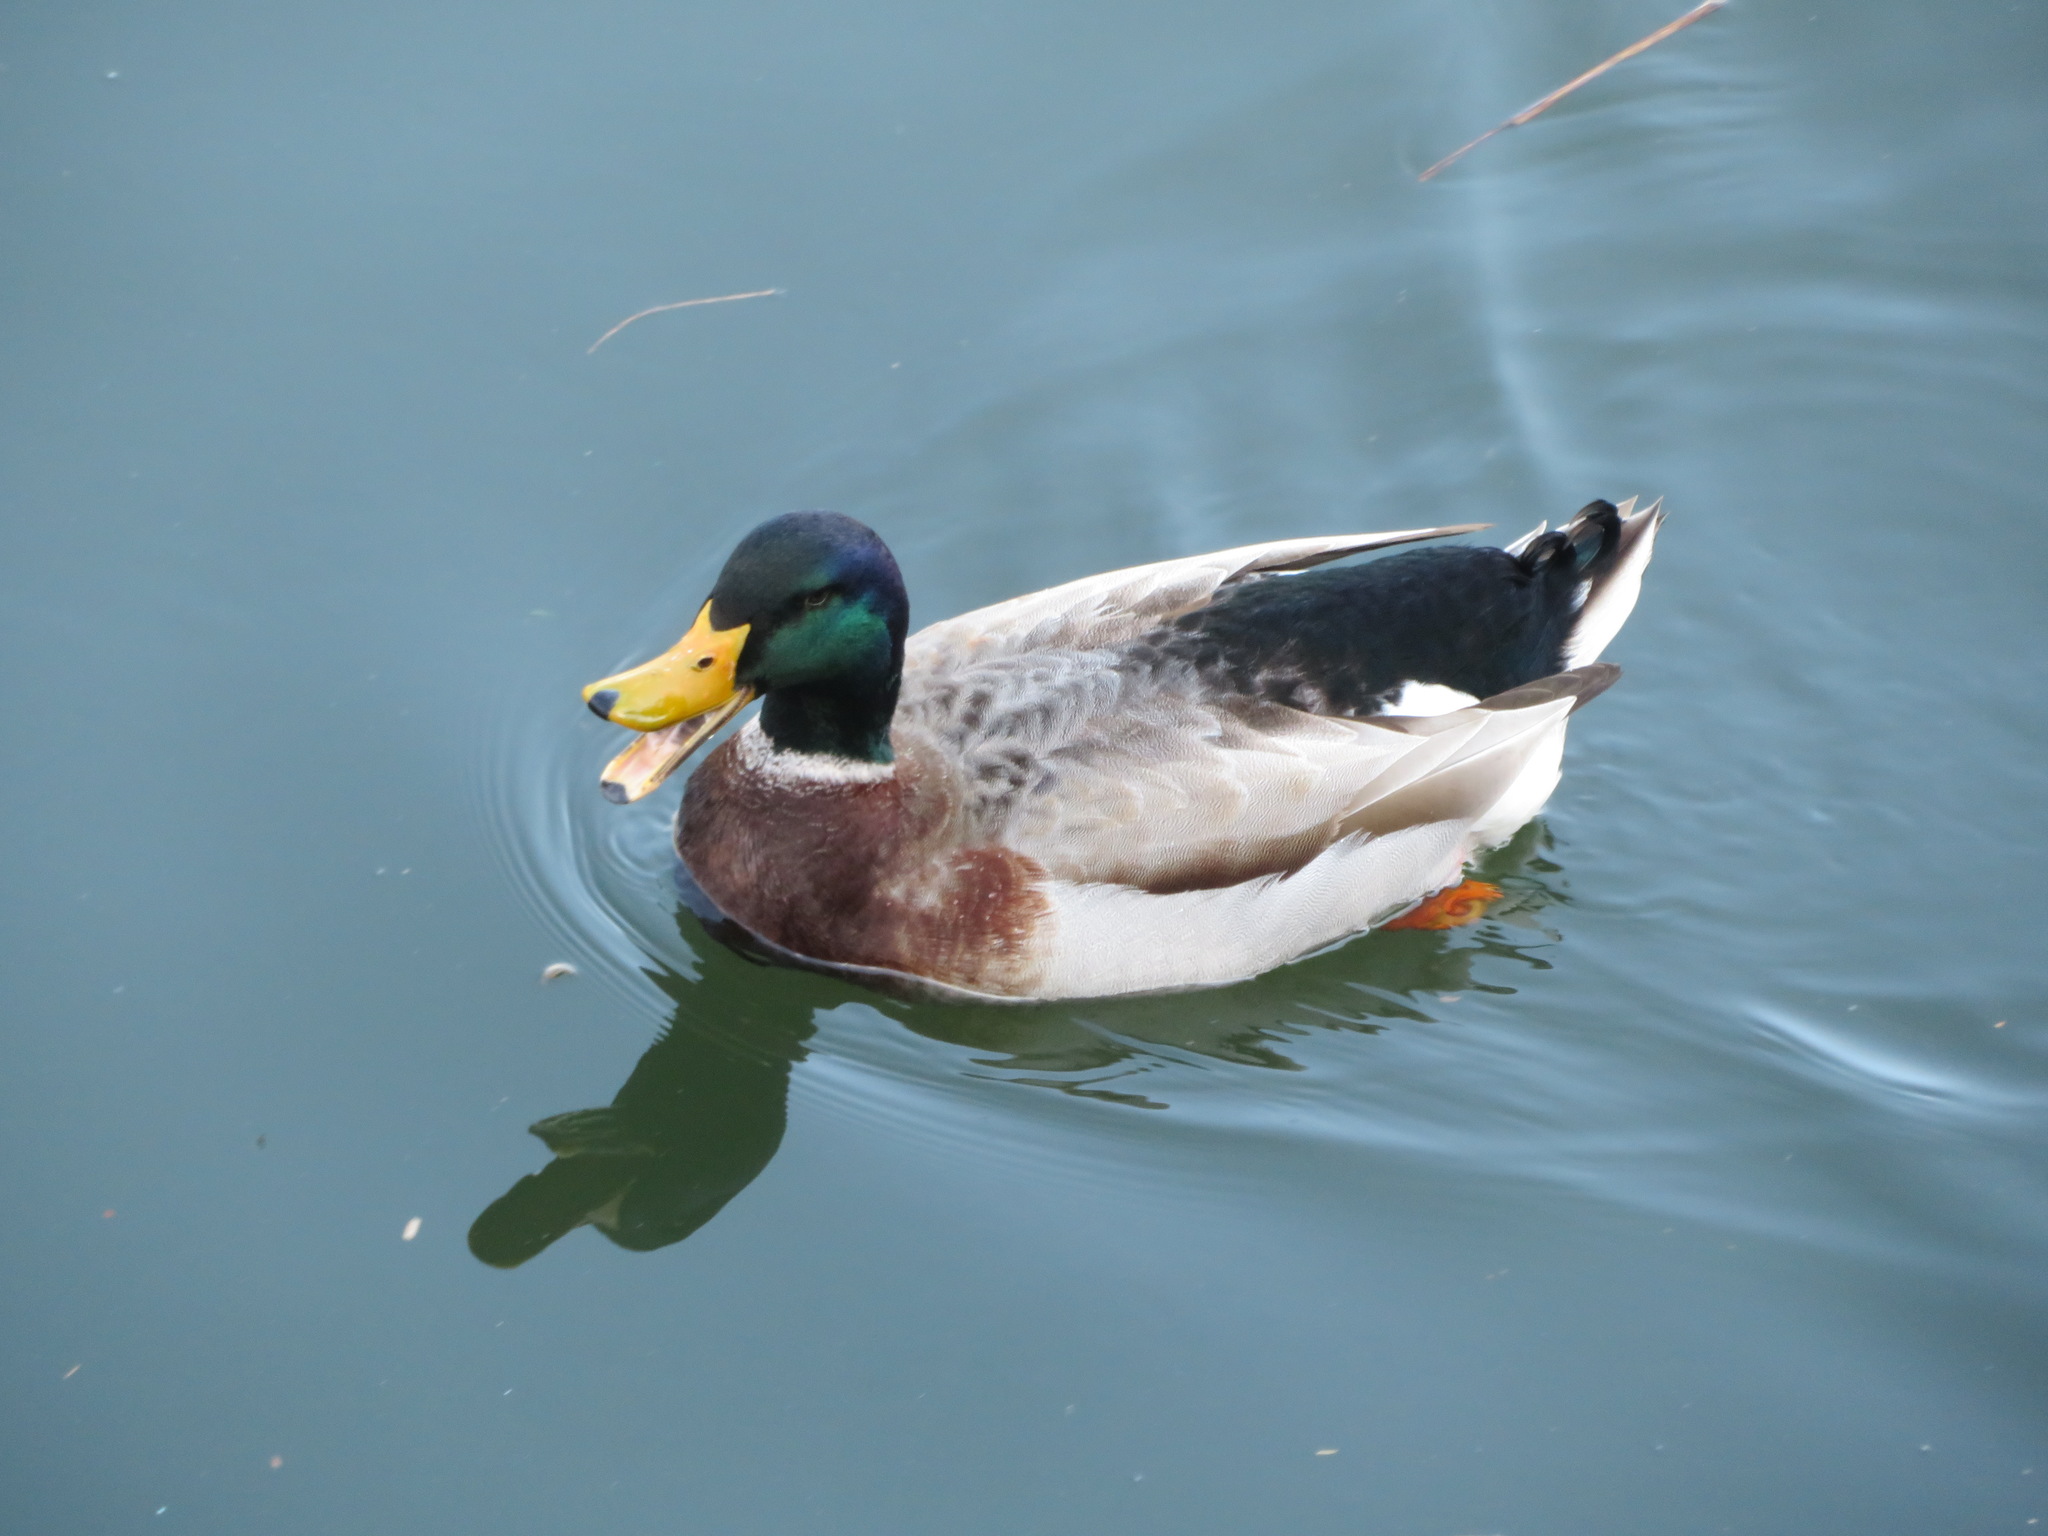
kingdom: Animalia
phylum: Chordata
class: Aves
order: Anseriformes
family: Anatidae
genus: Anas
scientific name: Anas platyrhynchos
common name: Mallard
